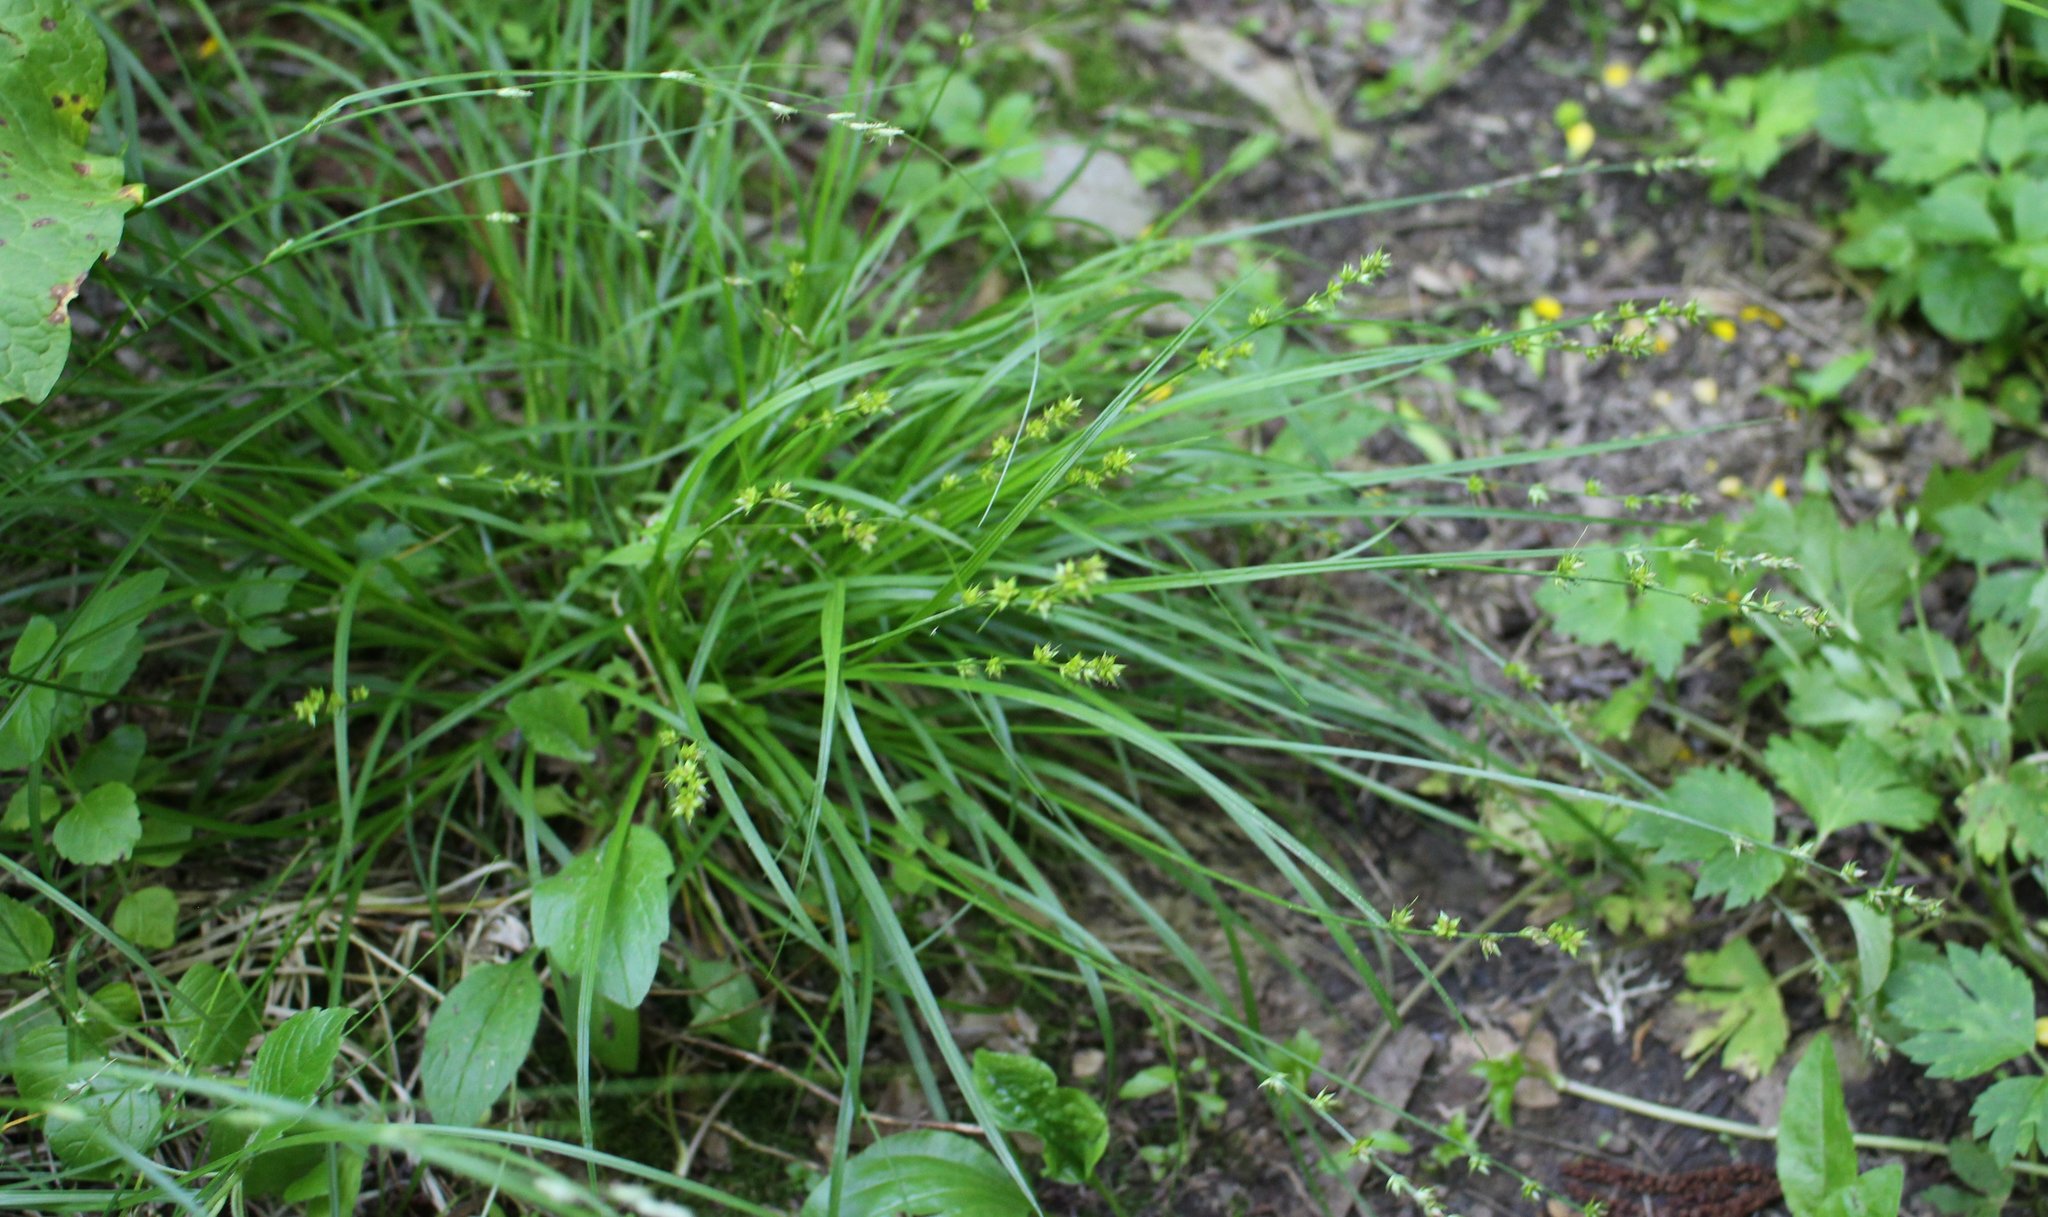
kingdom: Plantae
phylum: Tracheophyta
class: Liliopsida
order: Poales
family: Cyperaceae
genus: Carex
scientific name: Carex divulsa
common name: Grassland sedge
